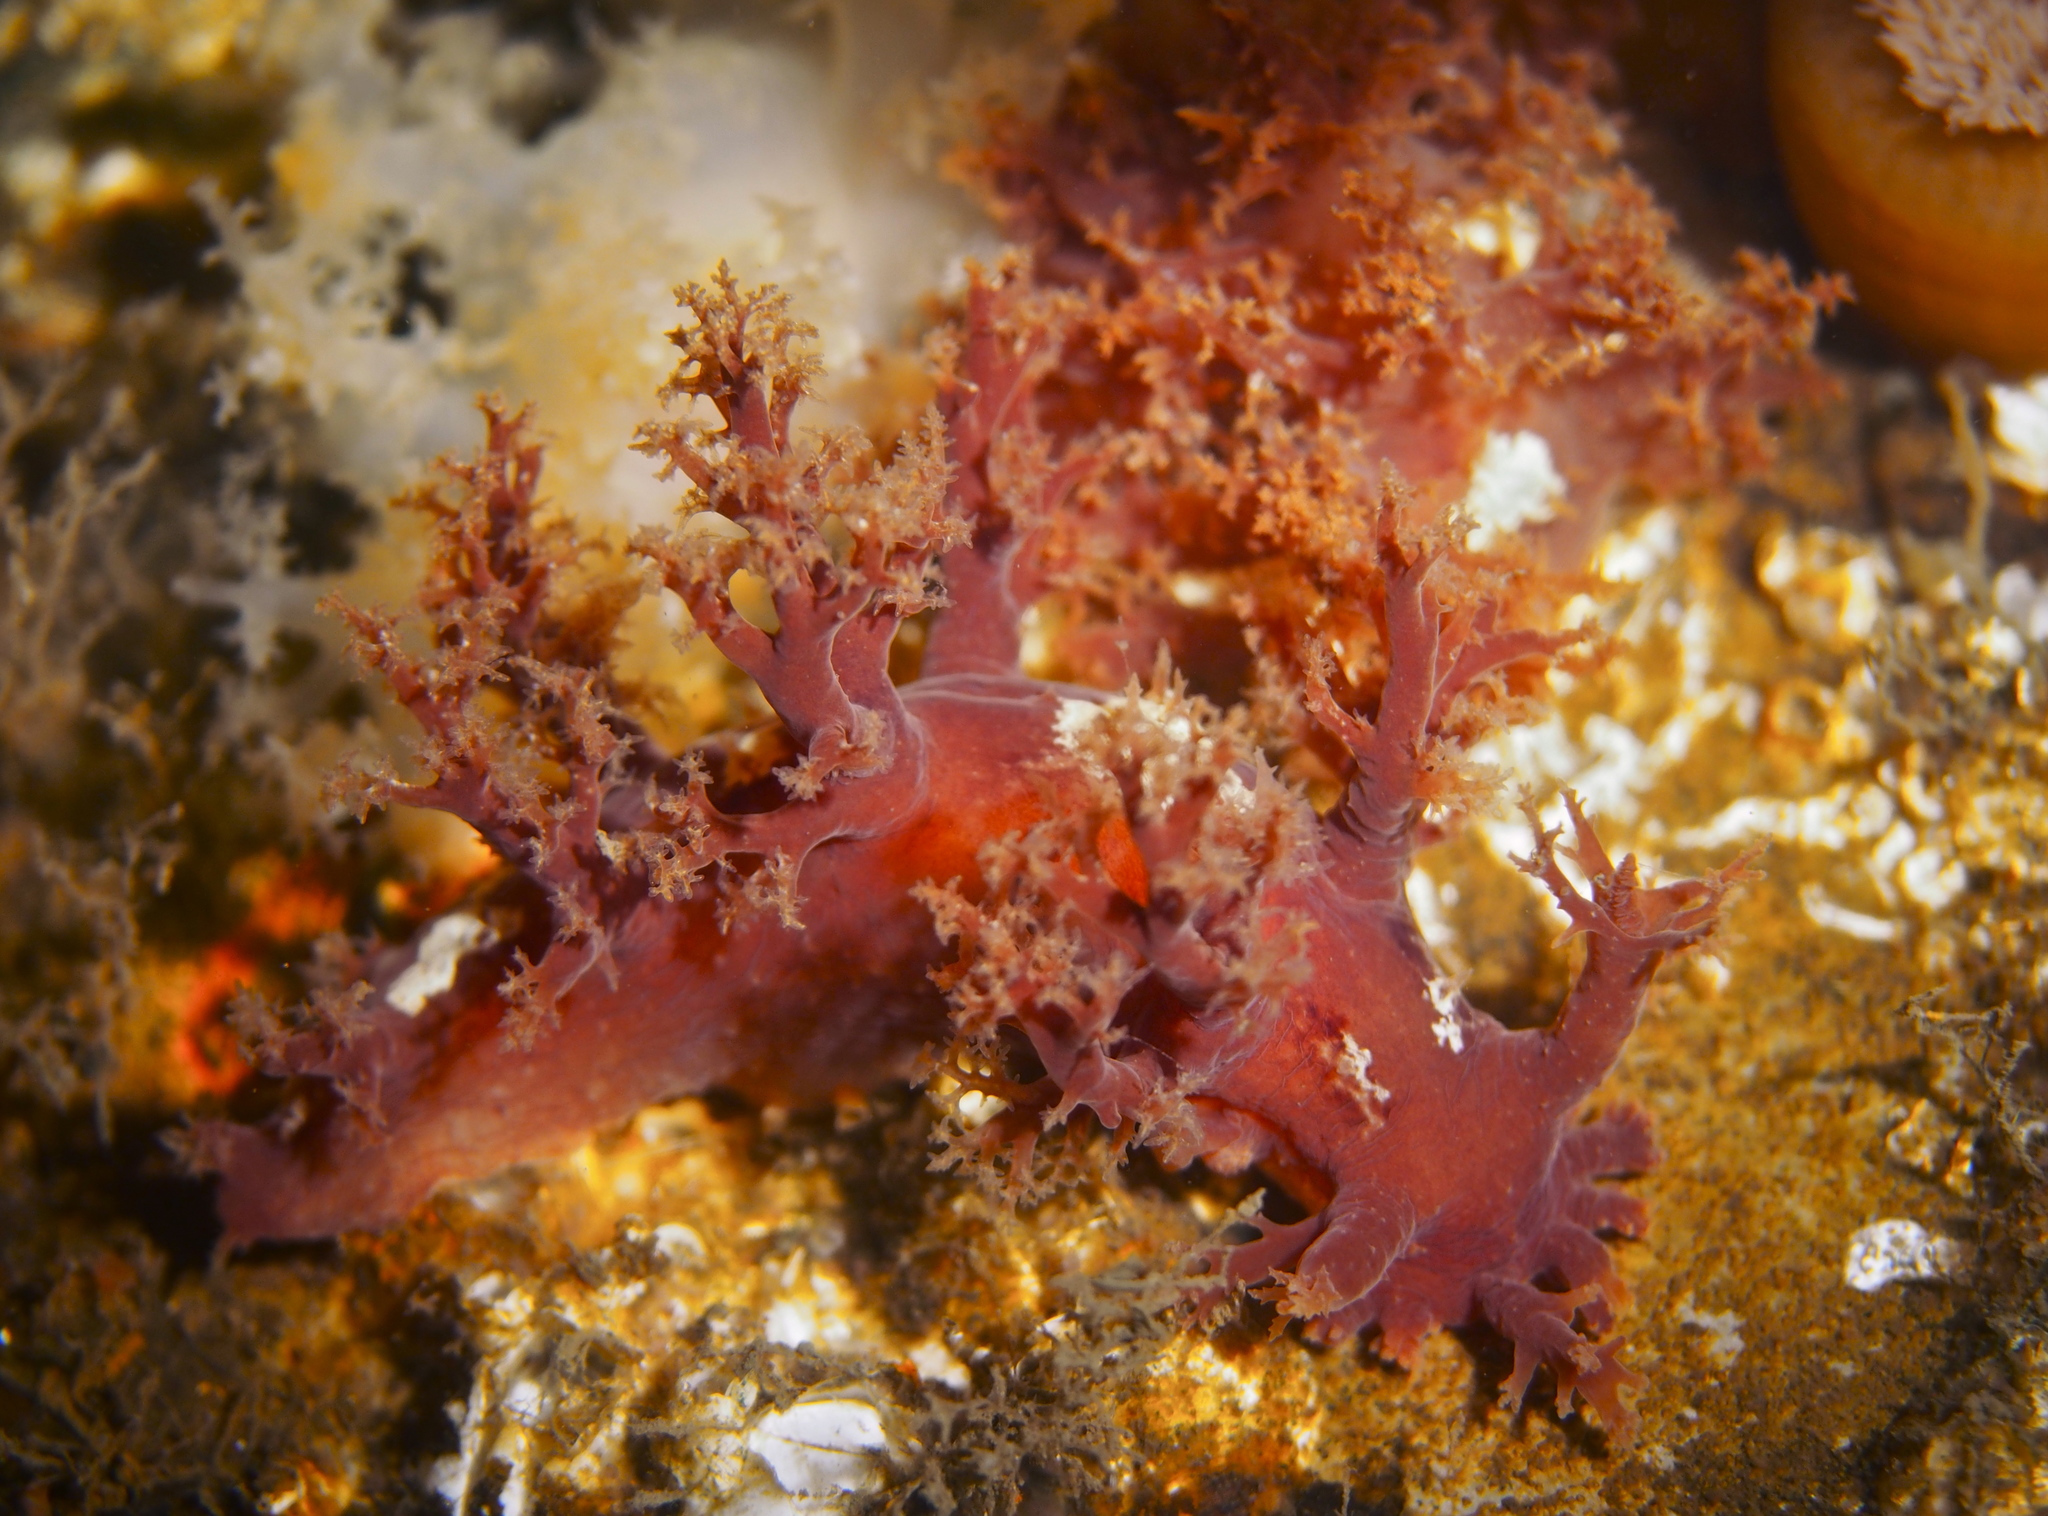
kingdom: Animalia
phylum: Mollusca
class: Gastropoda
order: Nudibranchia
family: Dendronotidae
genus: Dendronotus
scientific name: Dendronotus lacteus
